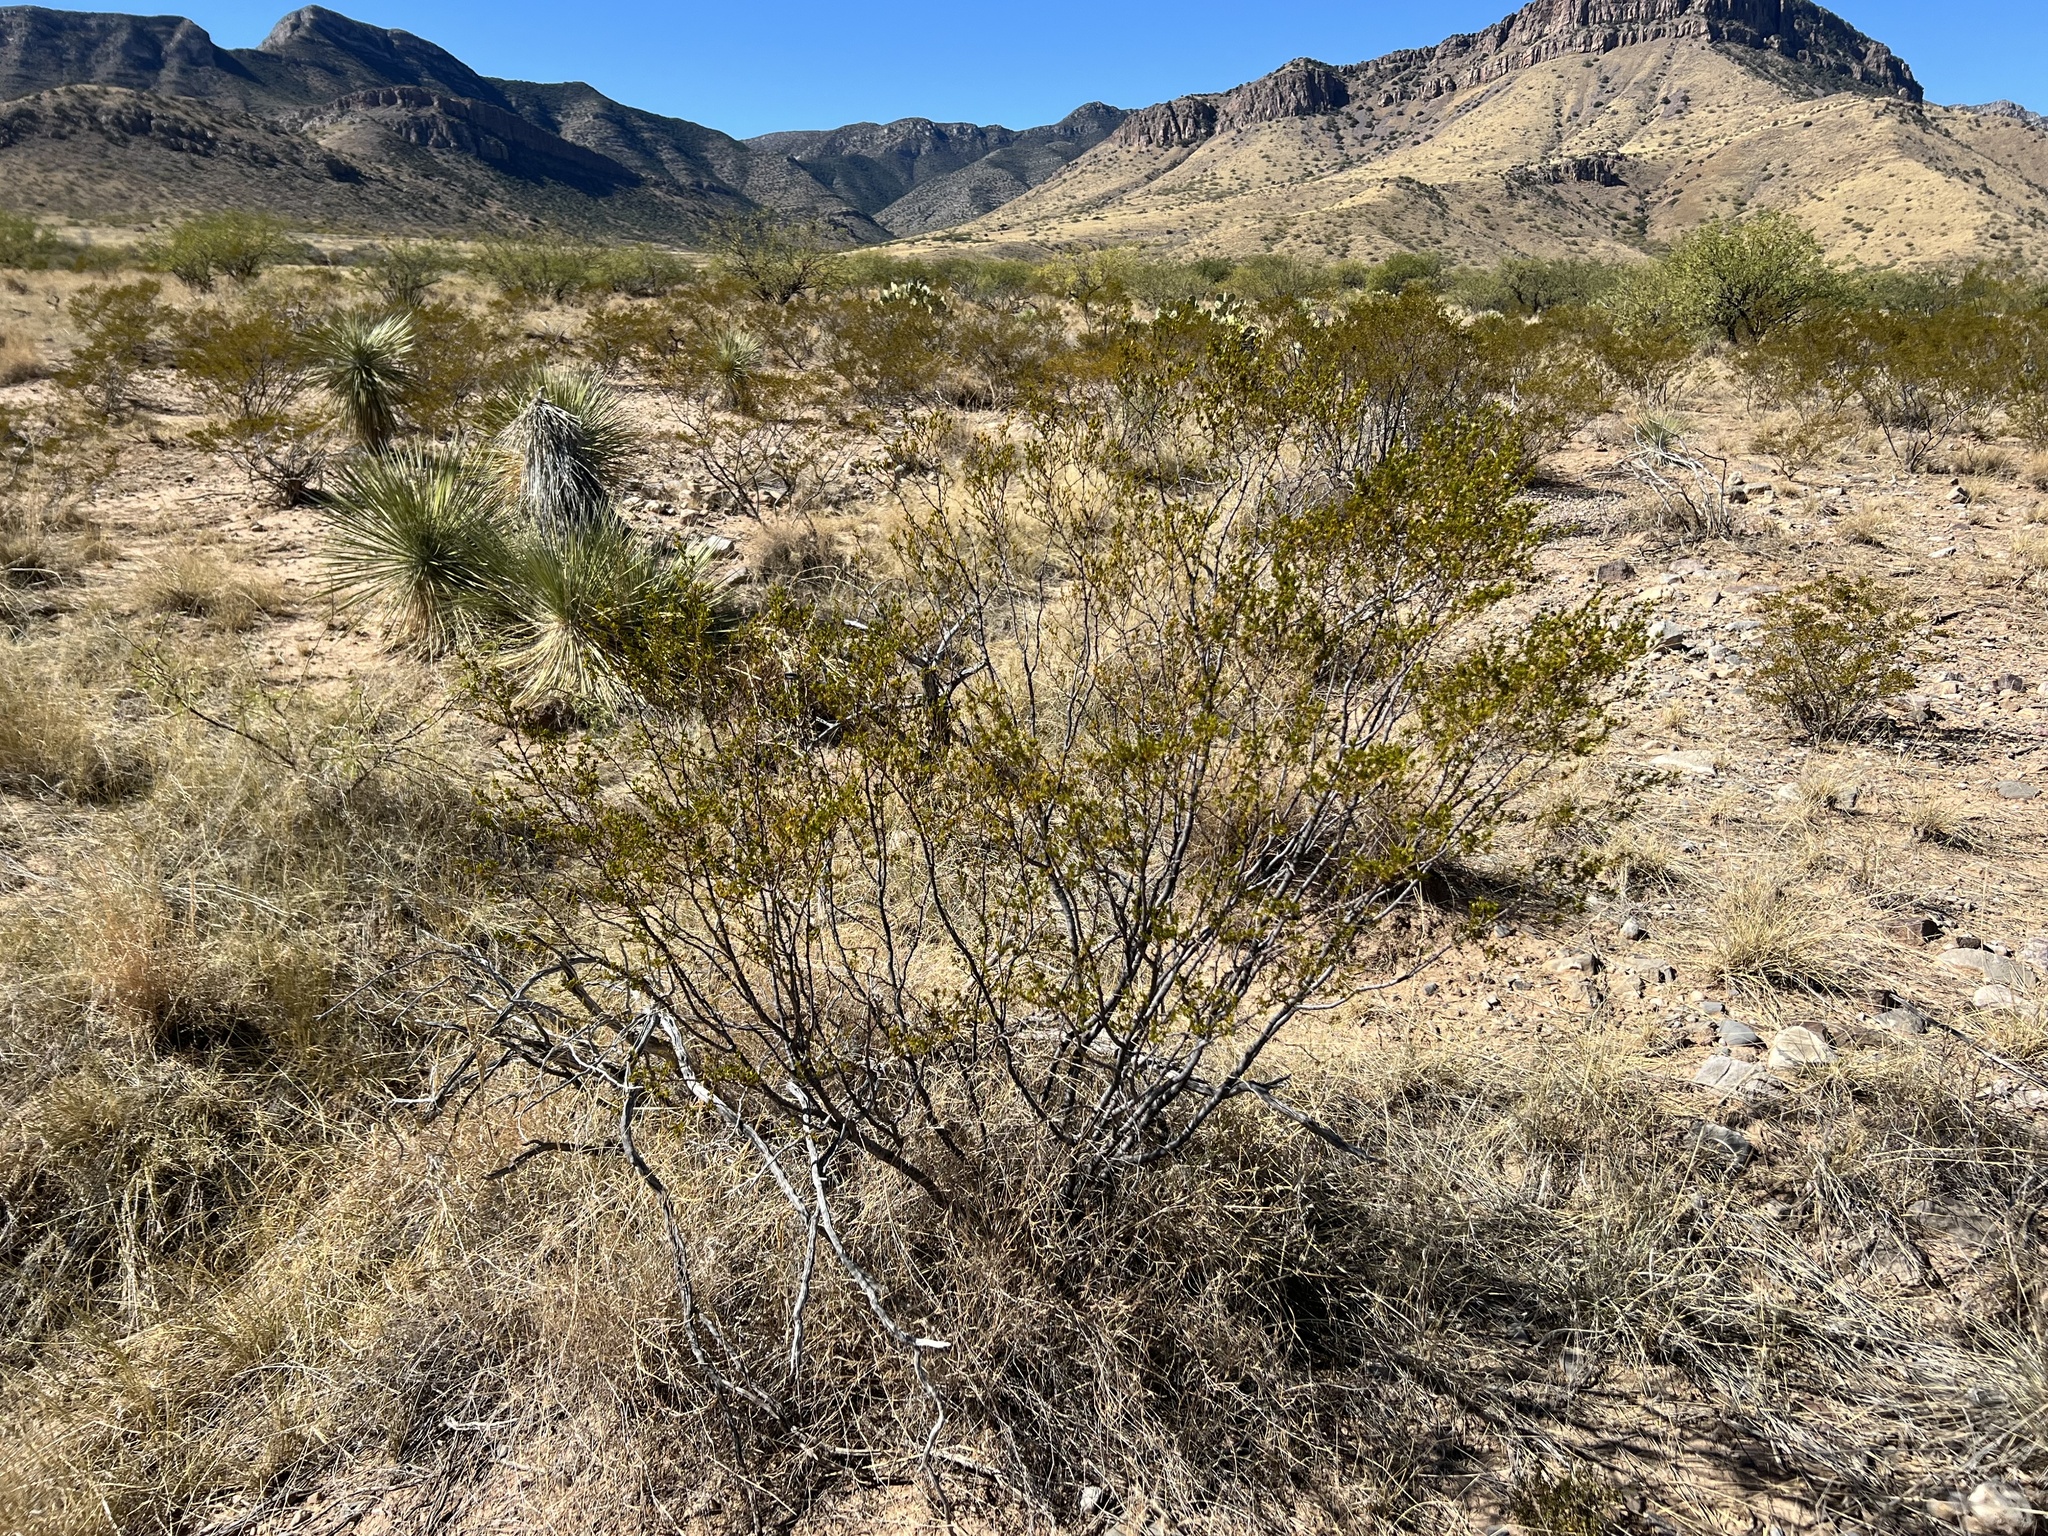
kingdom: Plantae
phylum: Tracheophyta
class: Magnoliopsida
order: Zygophyllales
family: Zygophyllaceae
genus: Larrea
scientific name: Larrea tridentata
